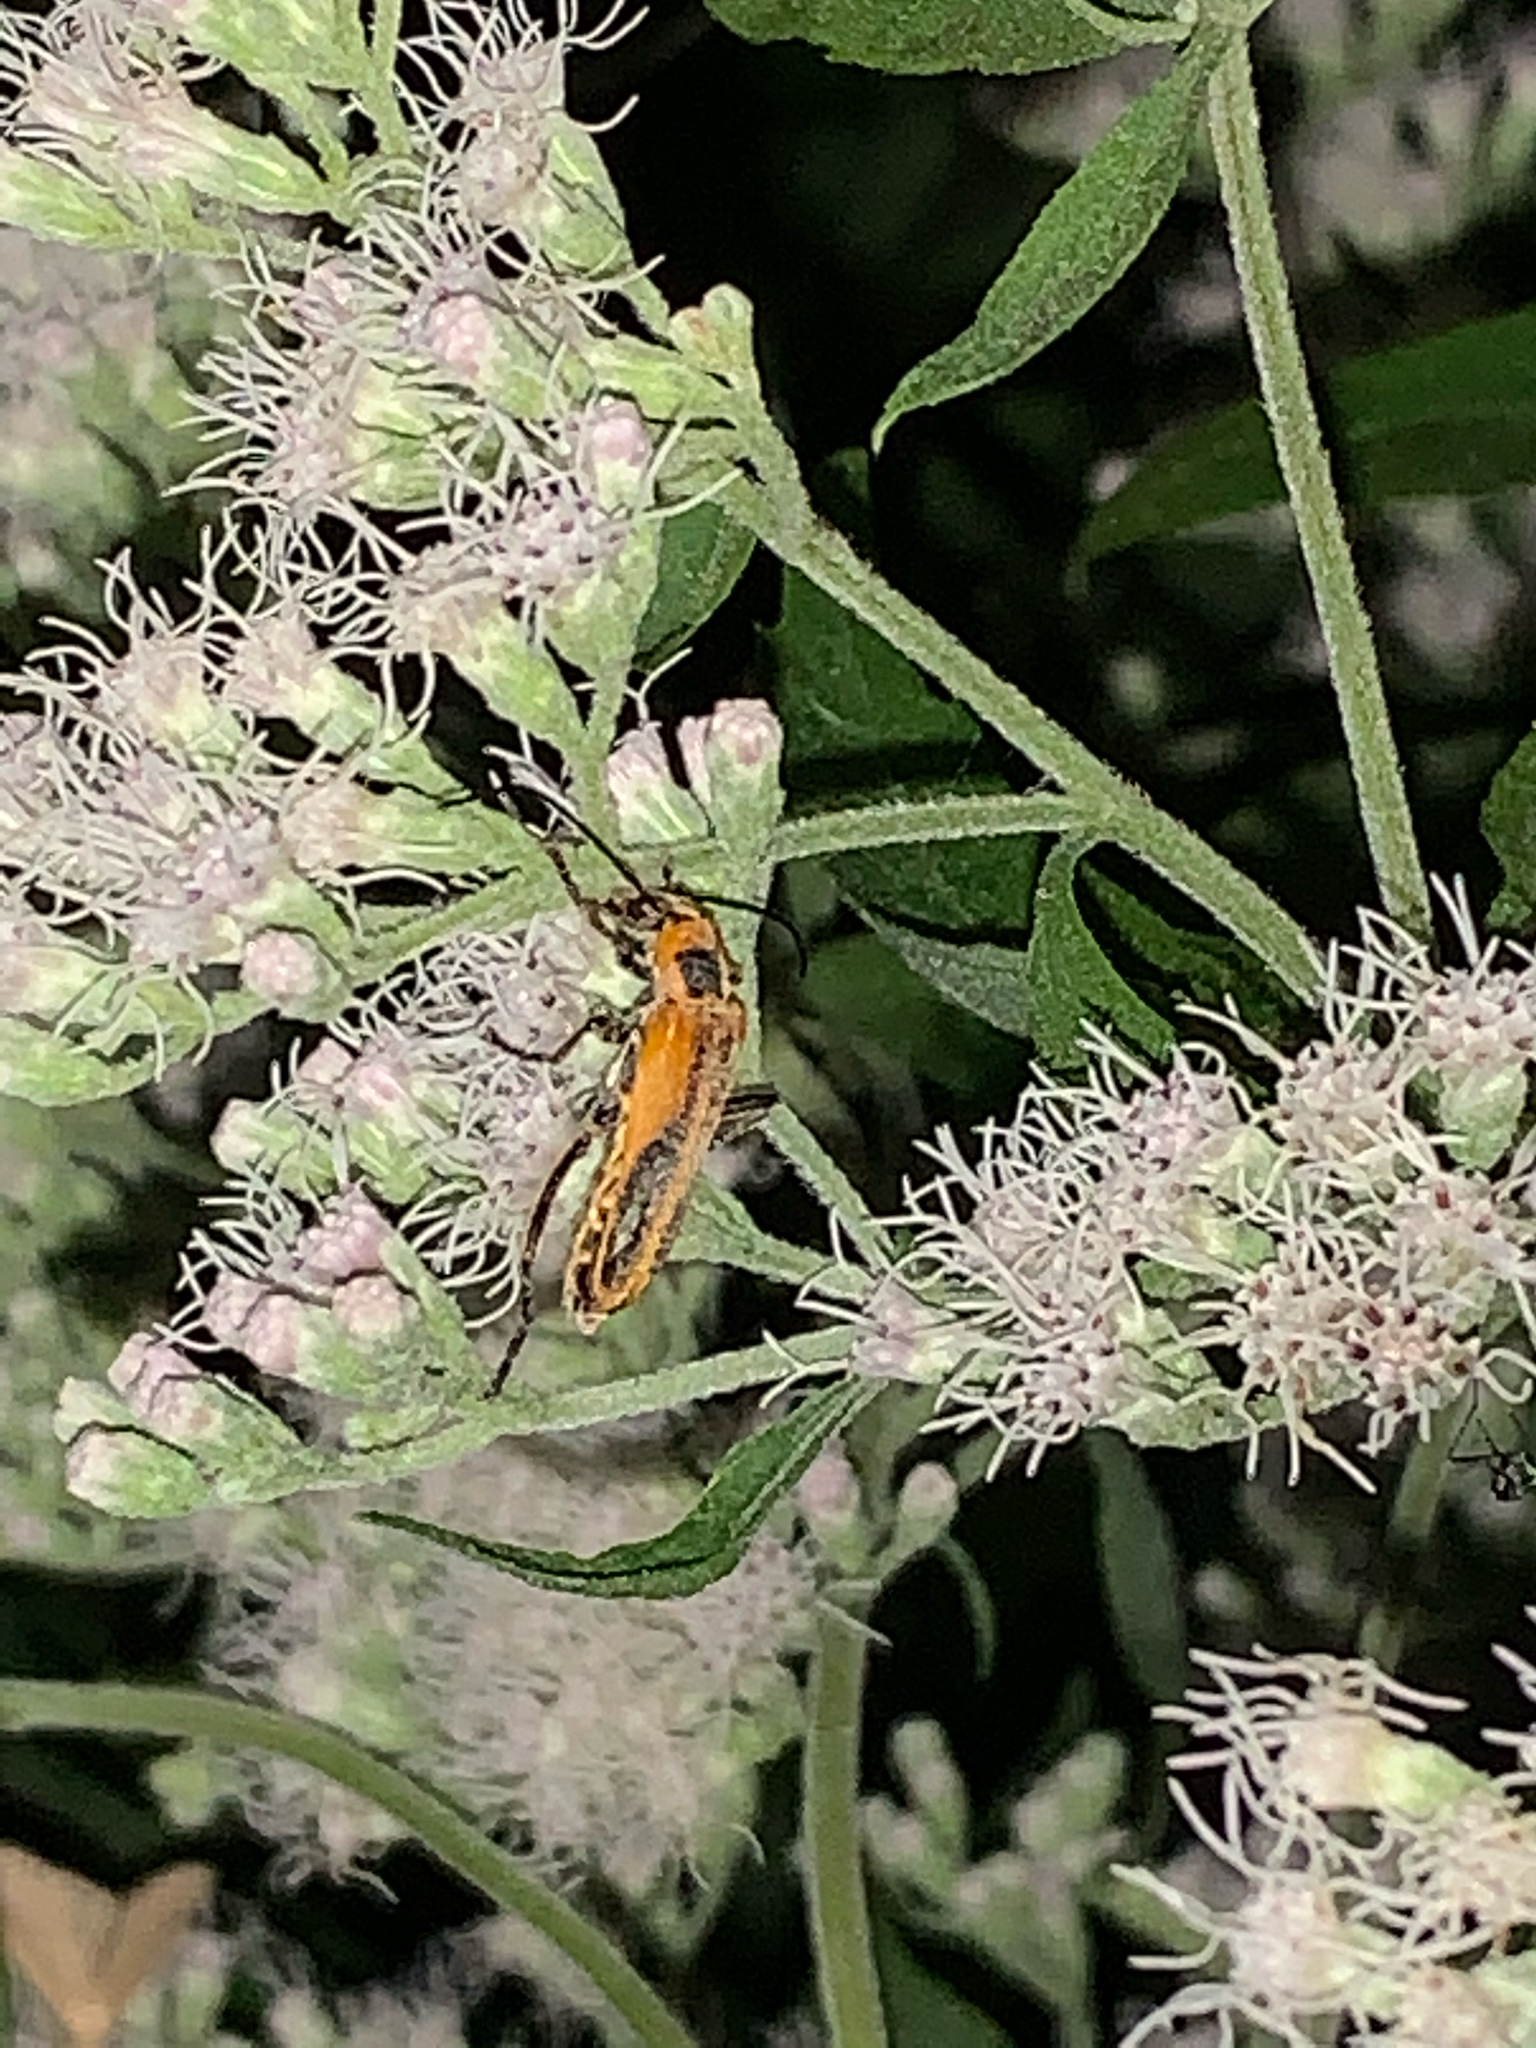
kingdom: Animalia
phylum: Arthropoda
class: Insecta
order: Coleoptera
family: Cantharidae
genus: Chauliognathus
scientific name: Chauliognathus pensylvanicus
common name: Goldenrod soldier beetle
